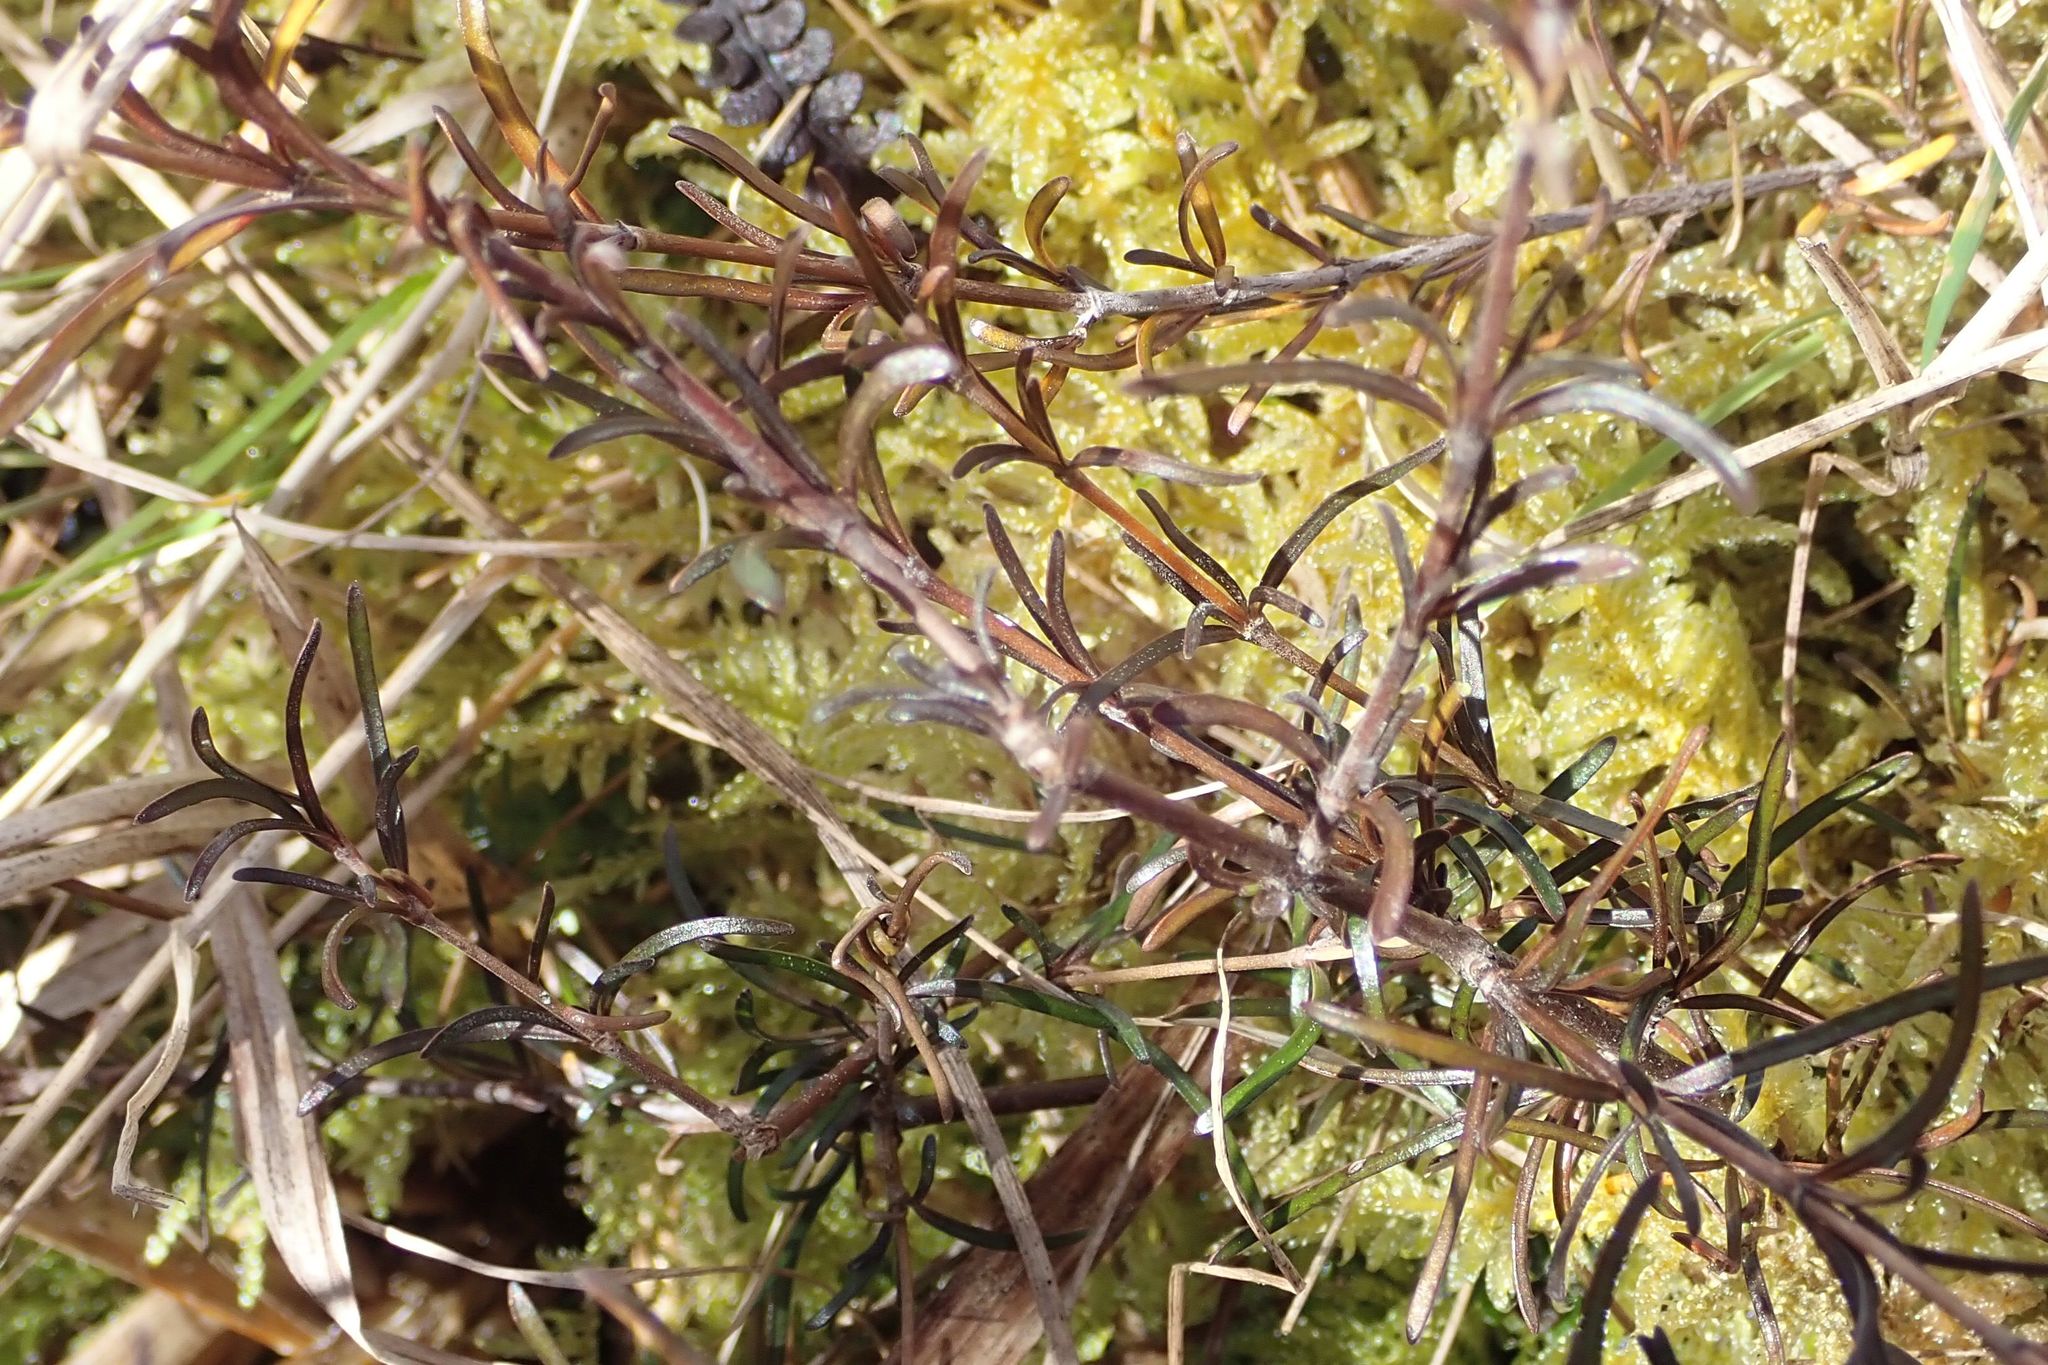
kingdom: Plantae
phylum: Tracheophyta
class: Magnoliopsida
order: Gentianales
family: Rubiaceae
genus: Coprosma
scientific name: Coprosma elatirioides
